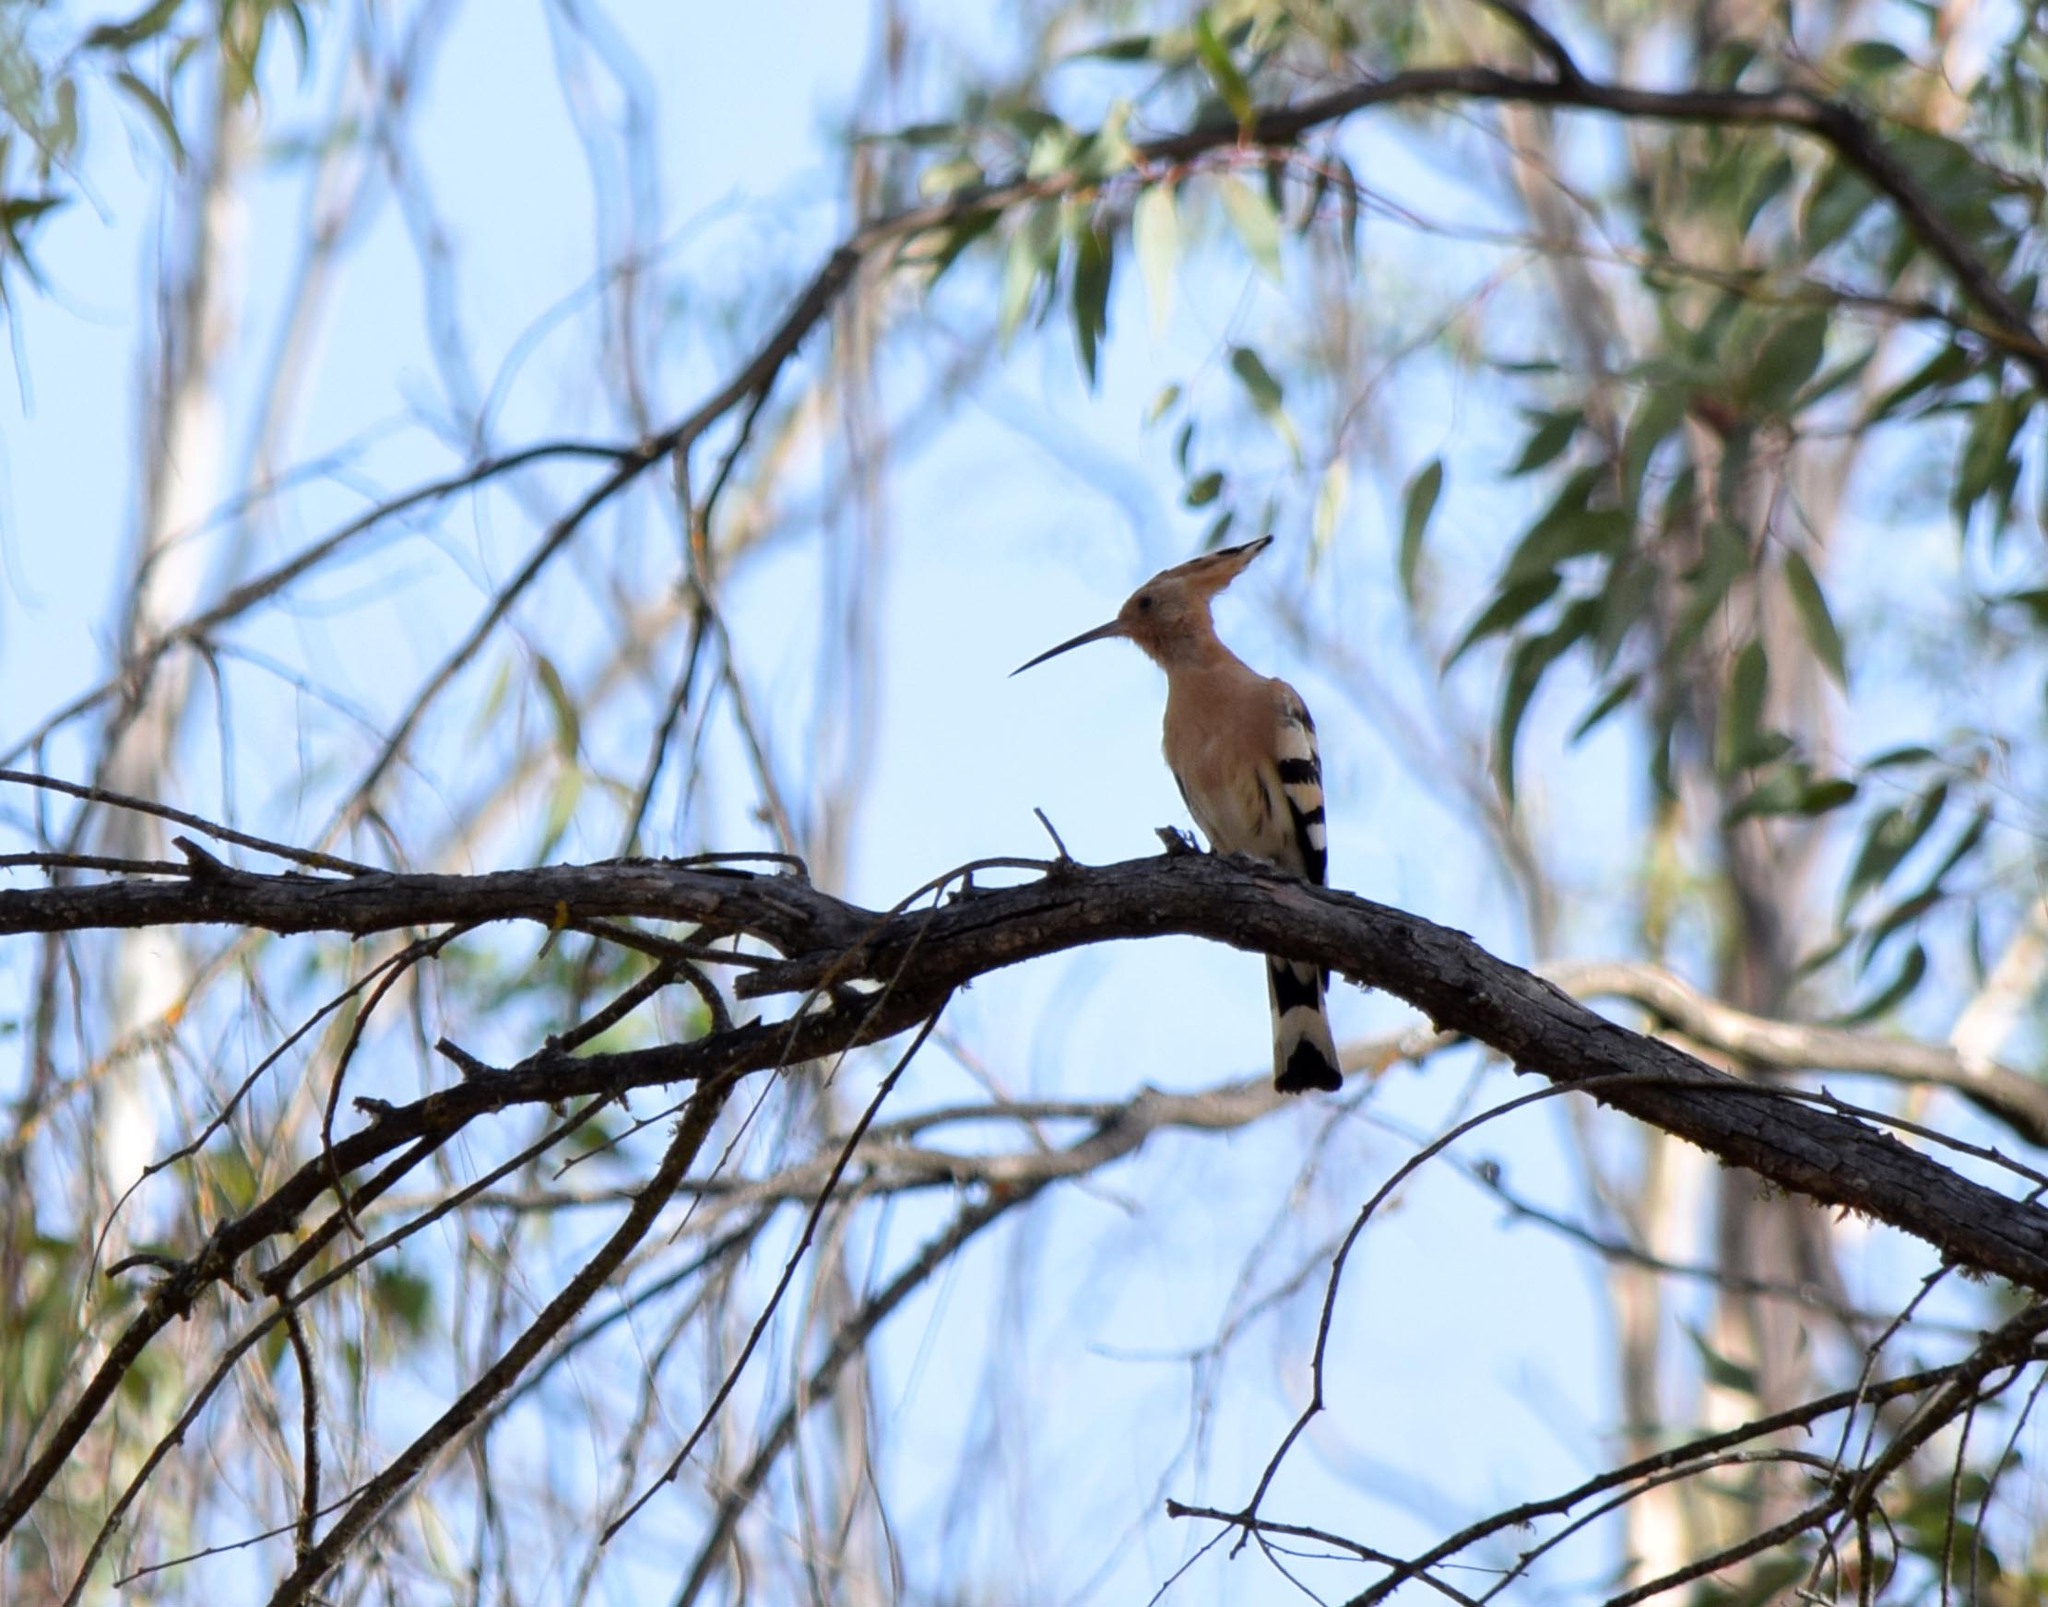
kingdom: Animalia
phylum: Chordata
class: Aves
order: Bucerotiformes
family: Upupidae
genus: Upupa
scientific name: Upupa epops
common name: Eurasian hoopoe
